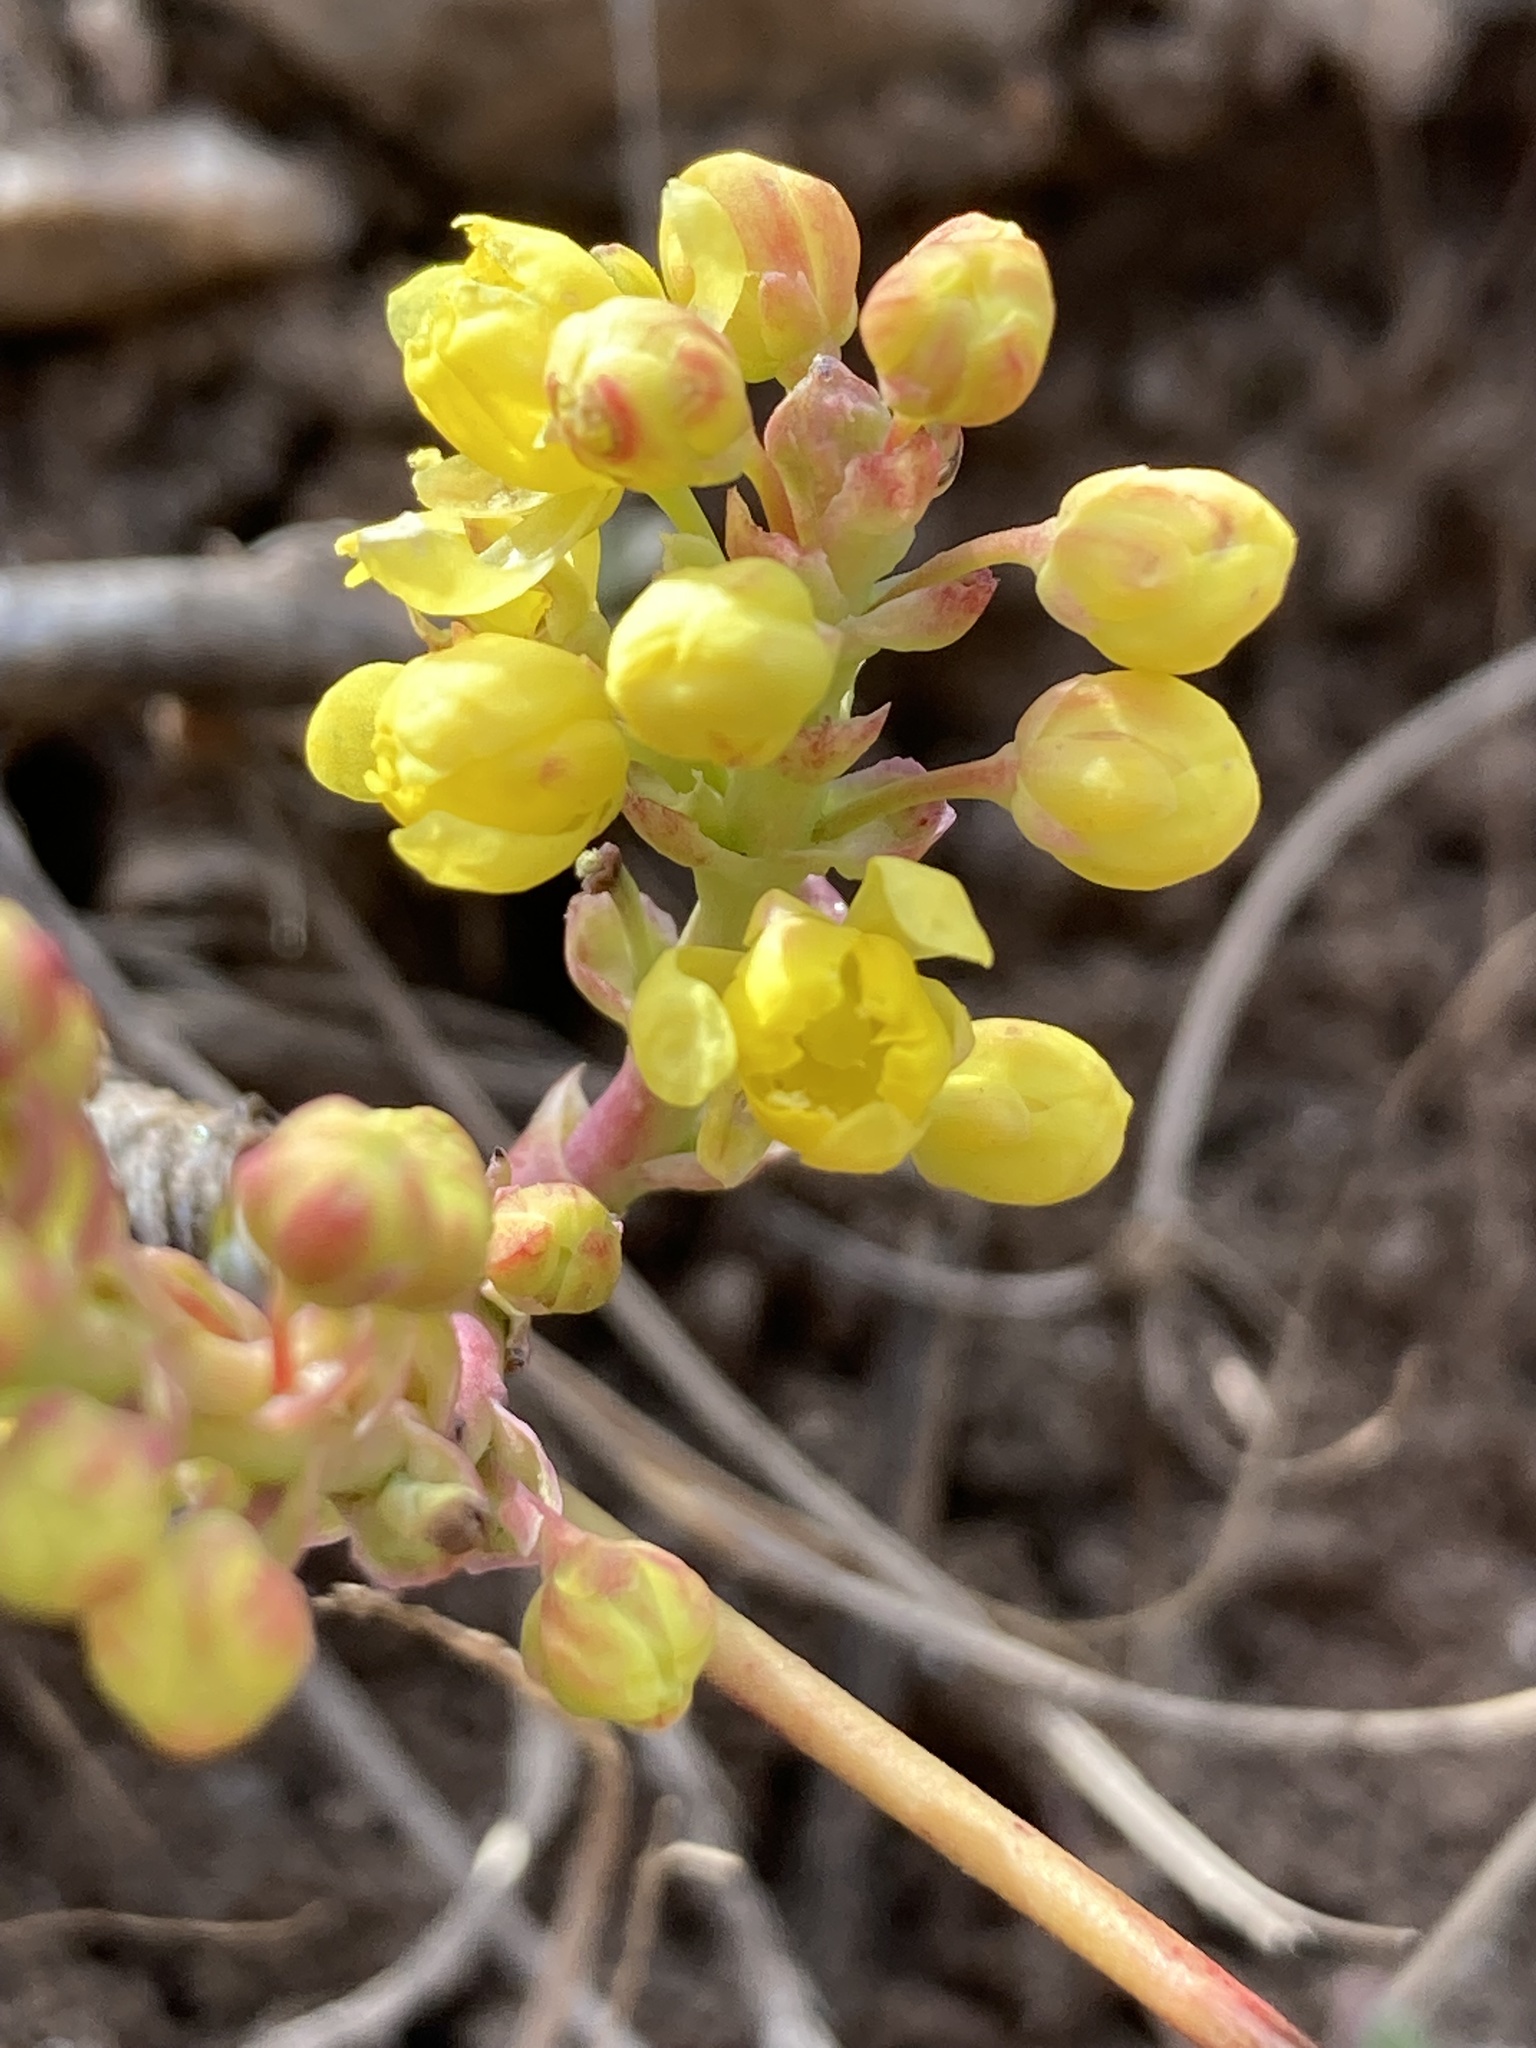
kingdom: Plantae
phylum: Tracheophyta
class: Magnoliopsida
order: Ranunculales
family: Berberidaceae
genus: Mahonia
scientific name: Mahonia repens
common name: Creeping oregon-grape
